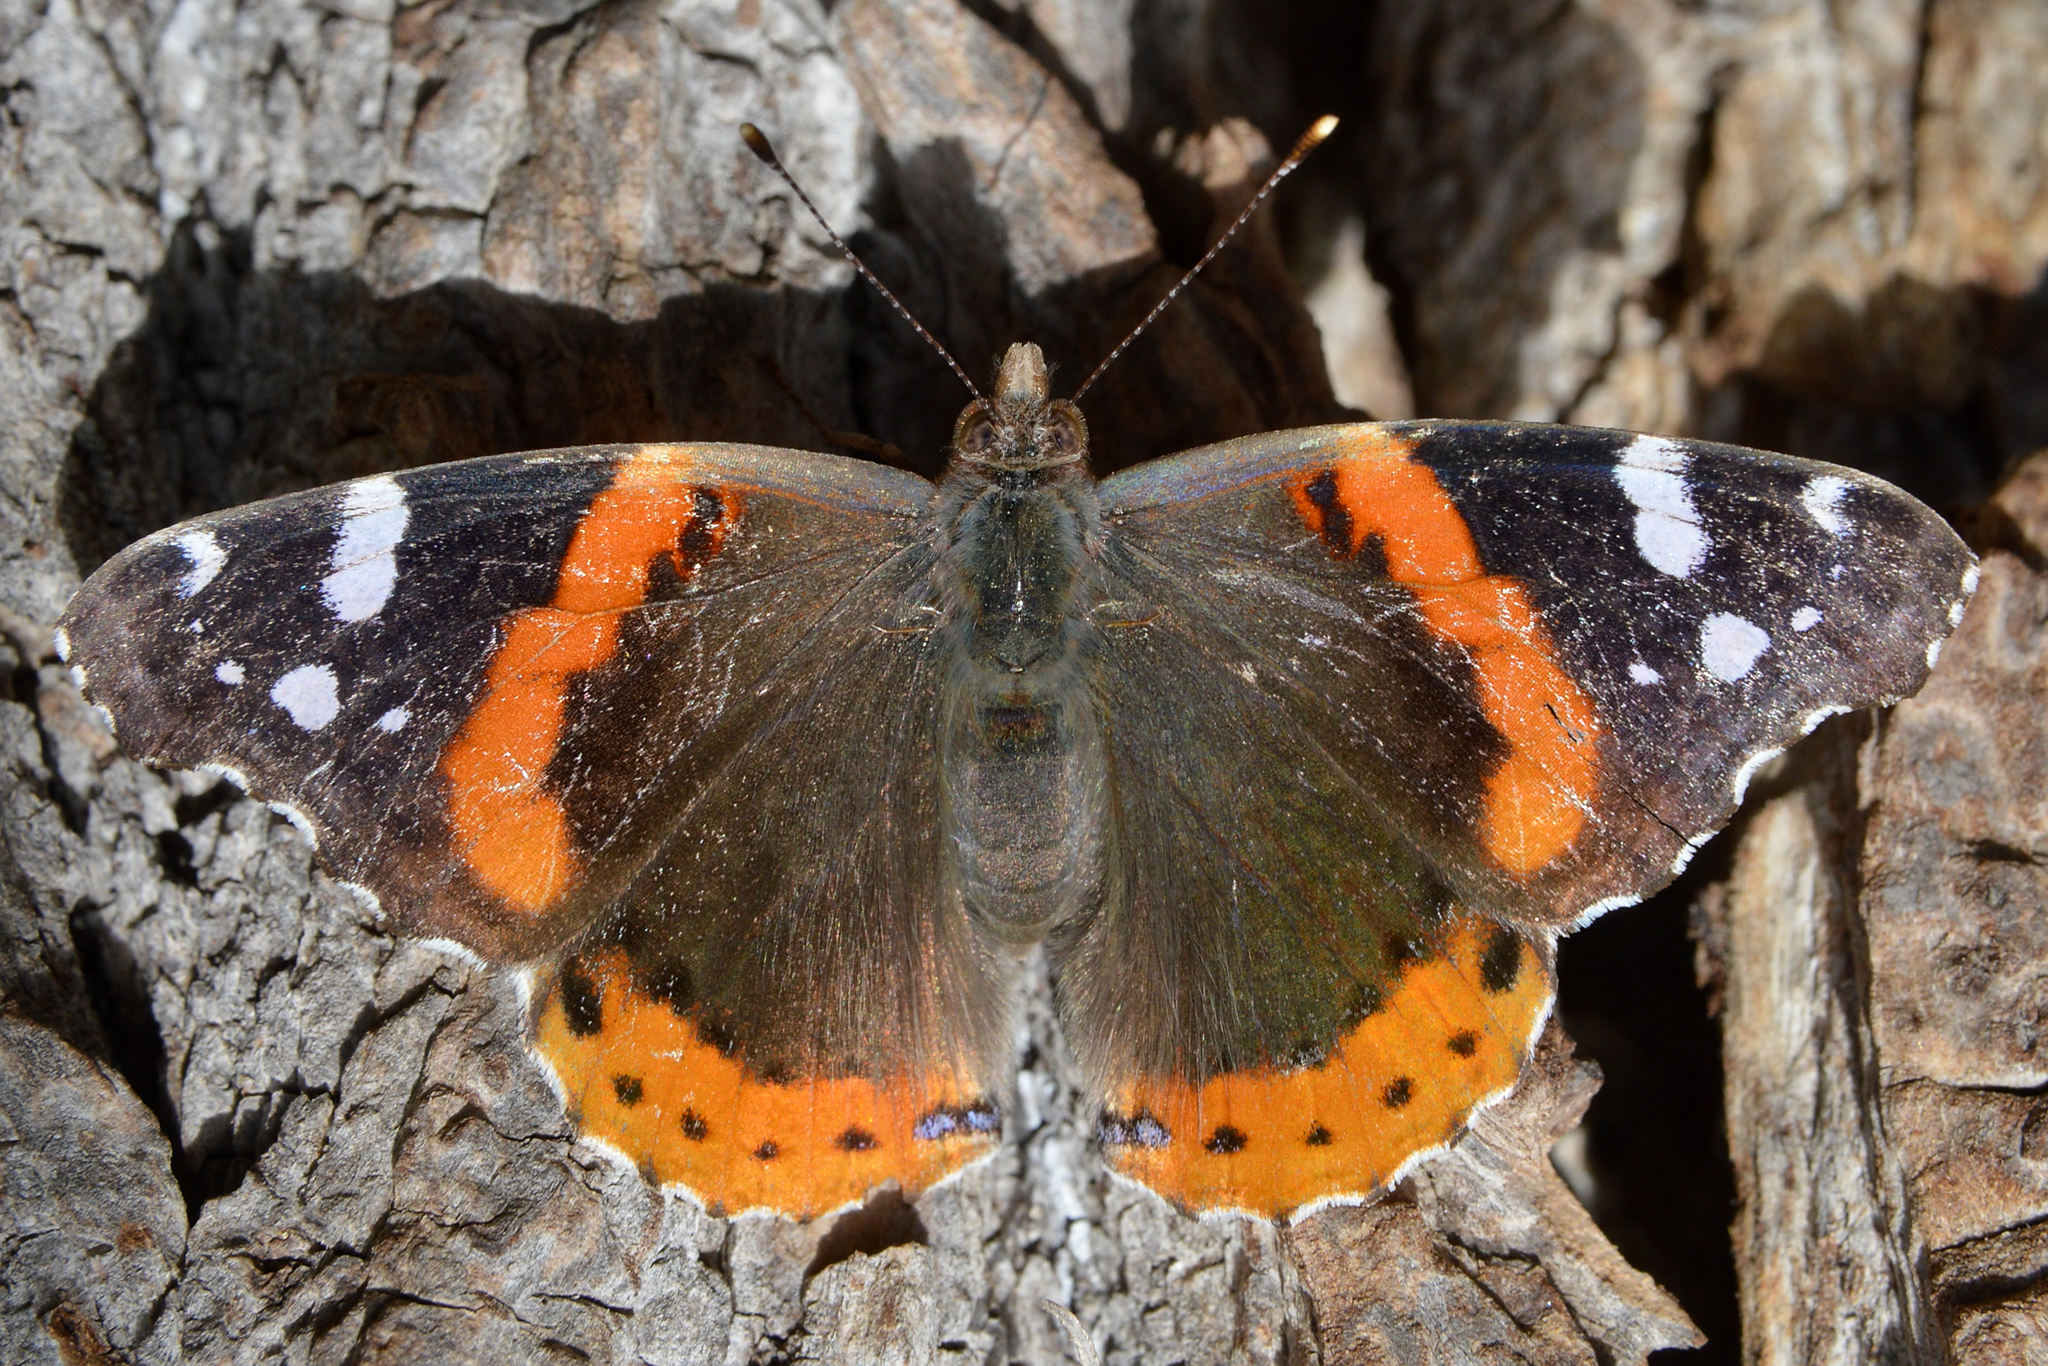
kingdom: Animalia
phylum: Arthropoda
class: Insecta
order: Lepidoptera
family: Nymphalidae
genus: Vanessa
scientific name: Vanessa atalanta
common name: Red admiral
